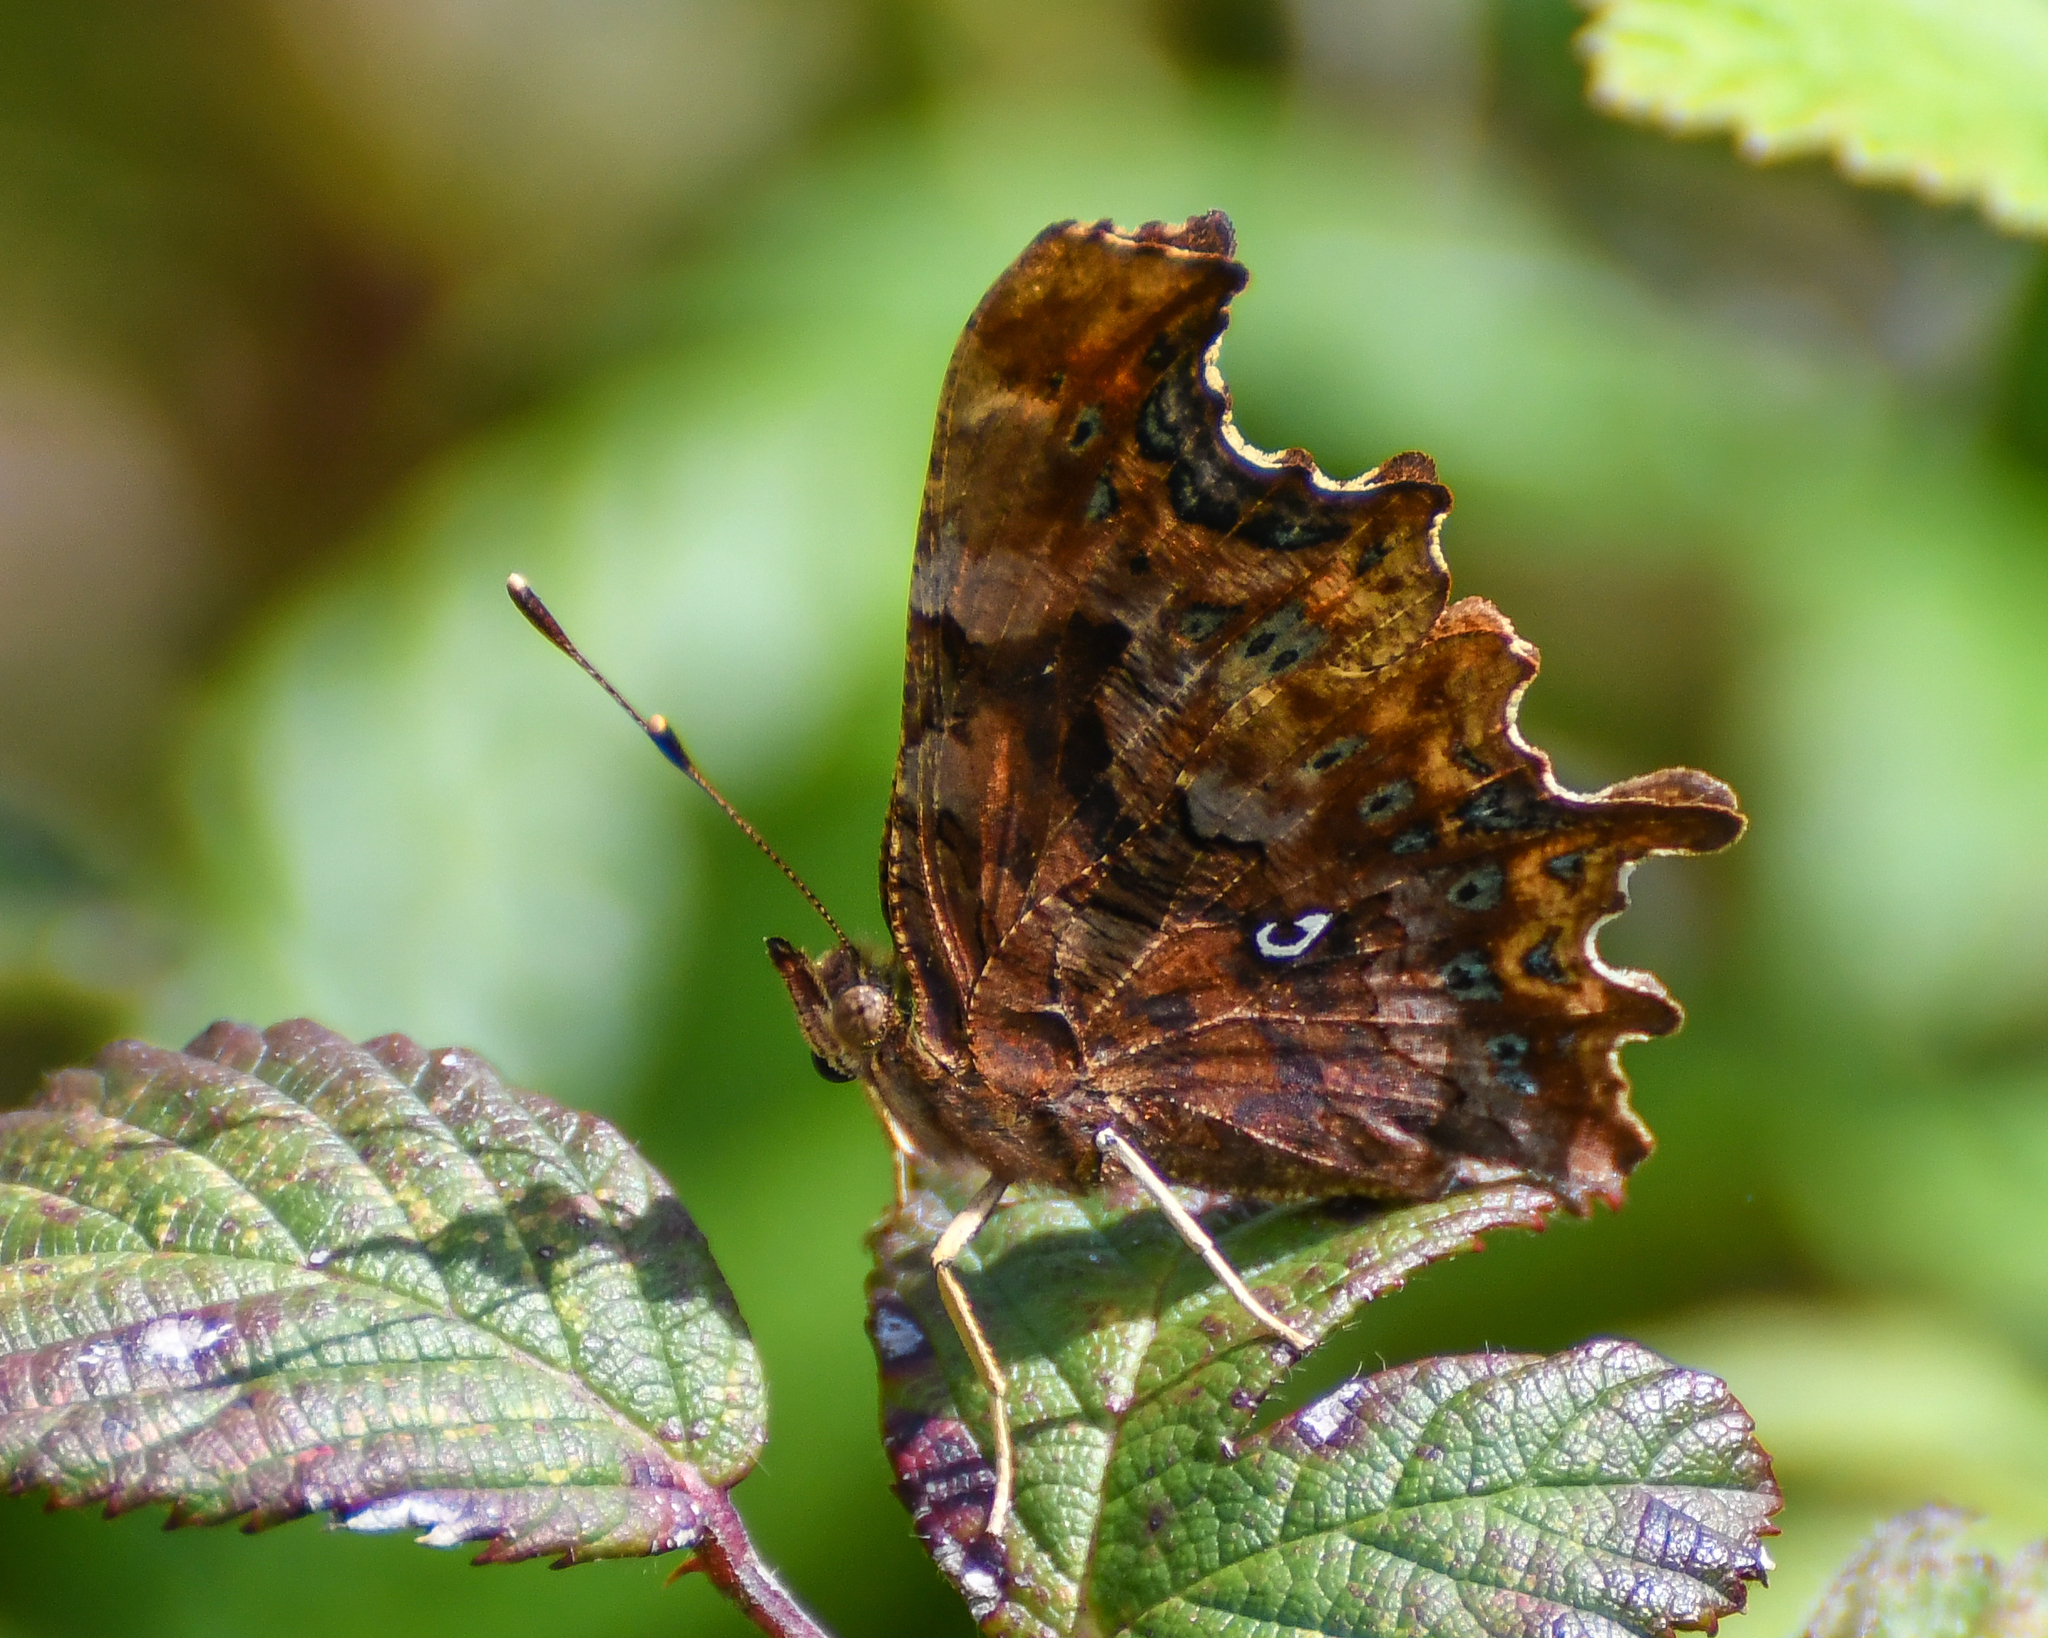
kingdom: Animalia
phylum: Arthropoda
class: Insecta
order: Lepidoptera
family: Nymphalidae
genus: Polygonia
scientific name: Polygonia c-album
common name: Comma
